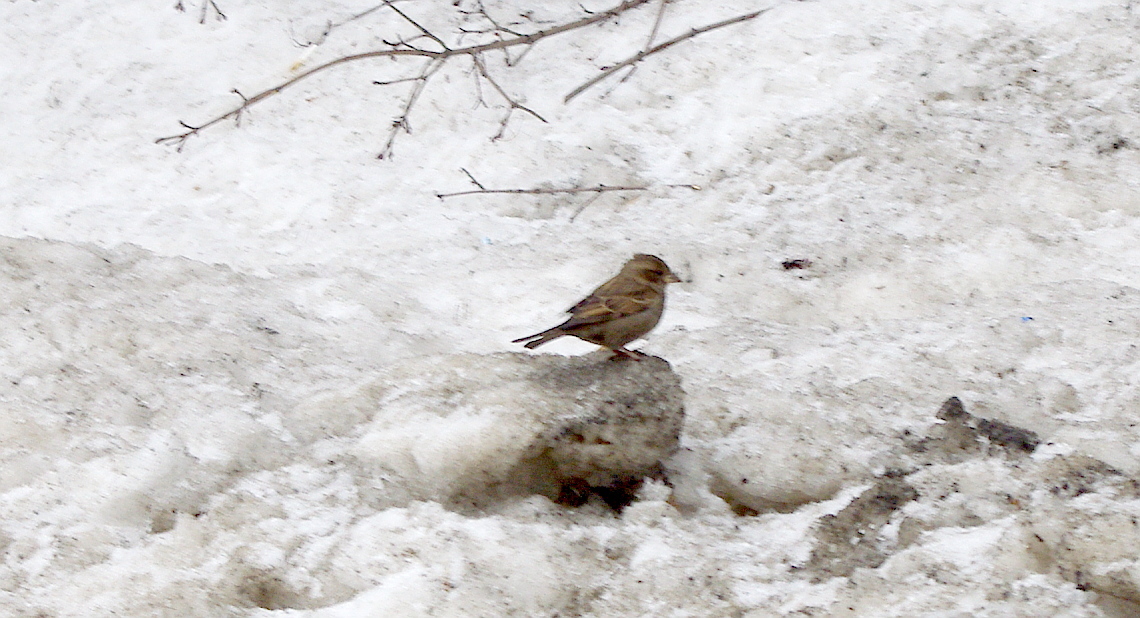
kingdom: Animalia
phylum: Chordata
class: Aves
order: Passeriformes
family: Passeridae
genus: Passer
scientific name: Passer domesticus
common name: House sparrow
